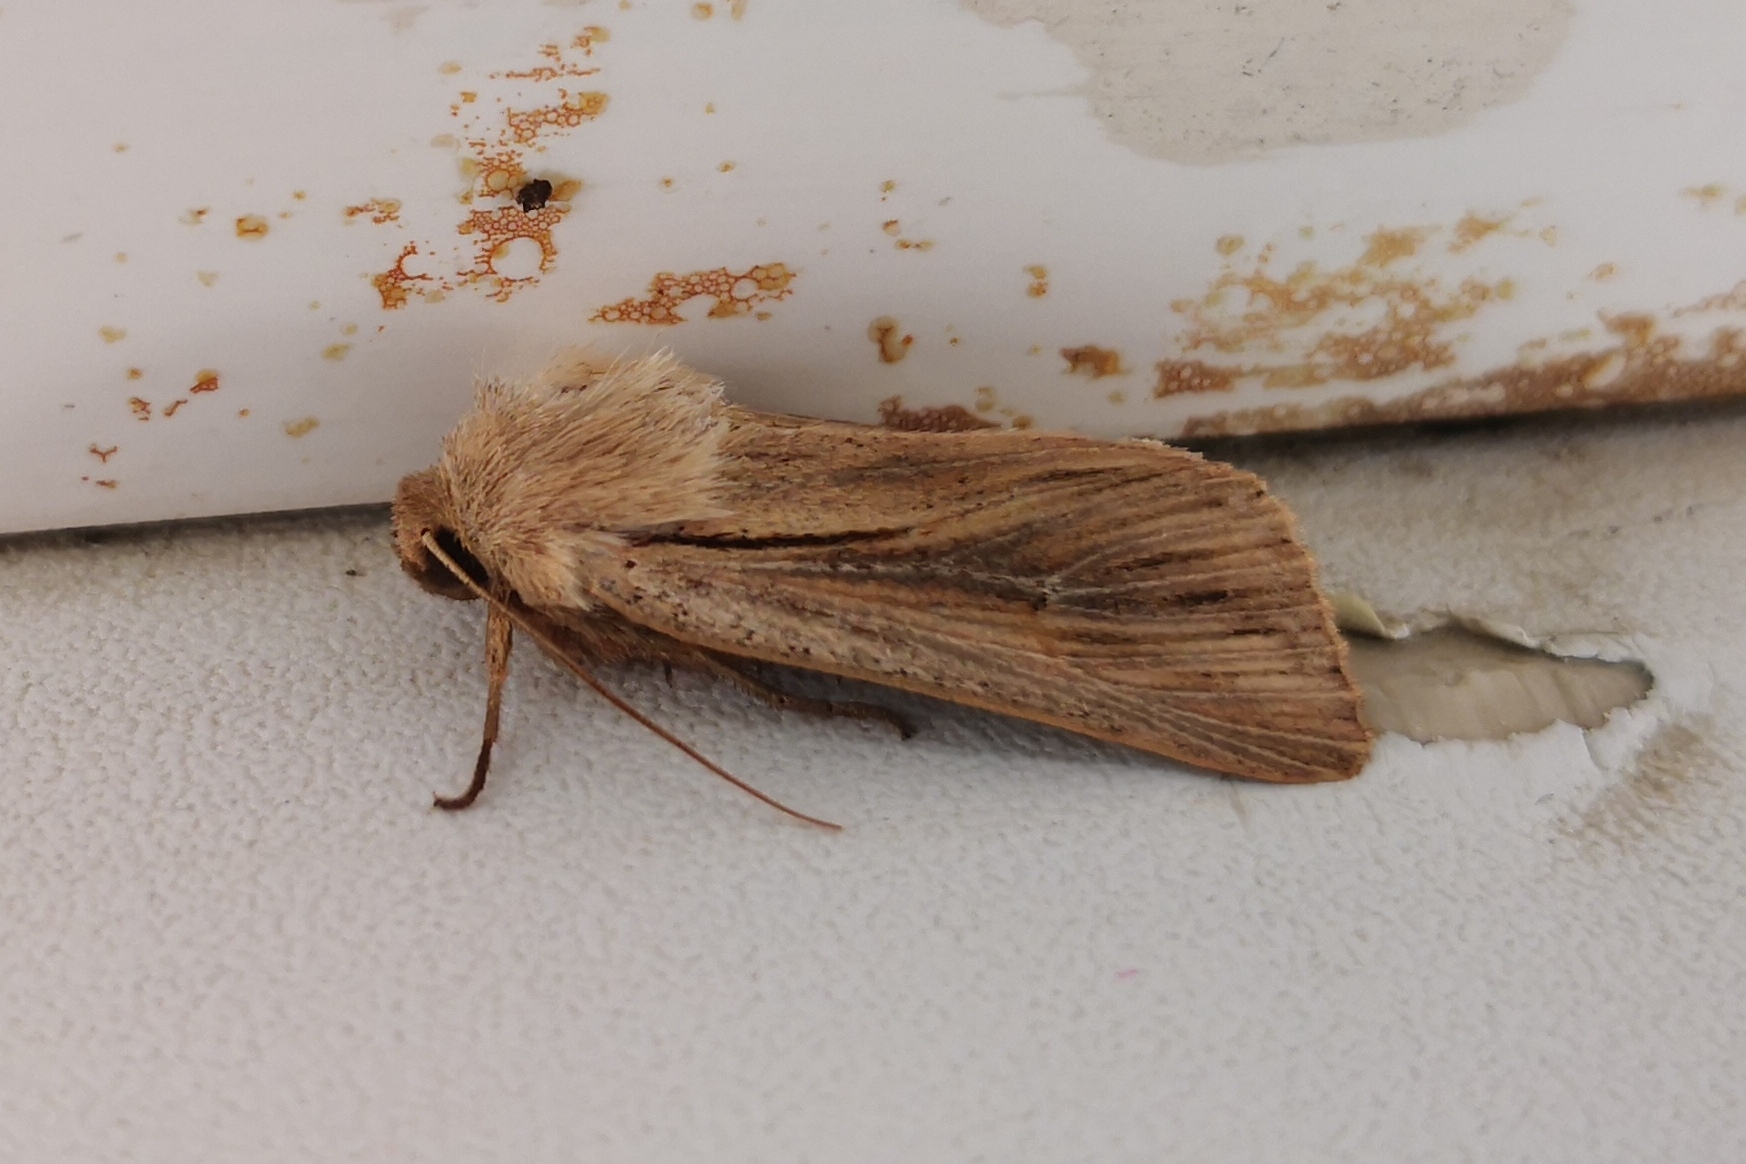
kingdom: Animalia
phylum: Arthropoda
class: Insecta
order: Lepidoptera
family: Noctuidae
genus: Leucania
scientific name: Leucania comma
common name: Shoulder-striped wainscot
